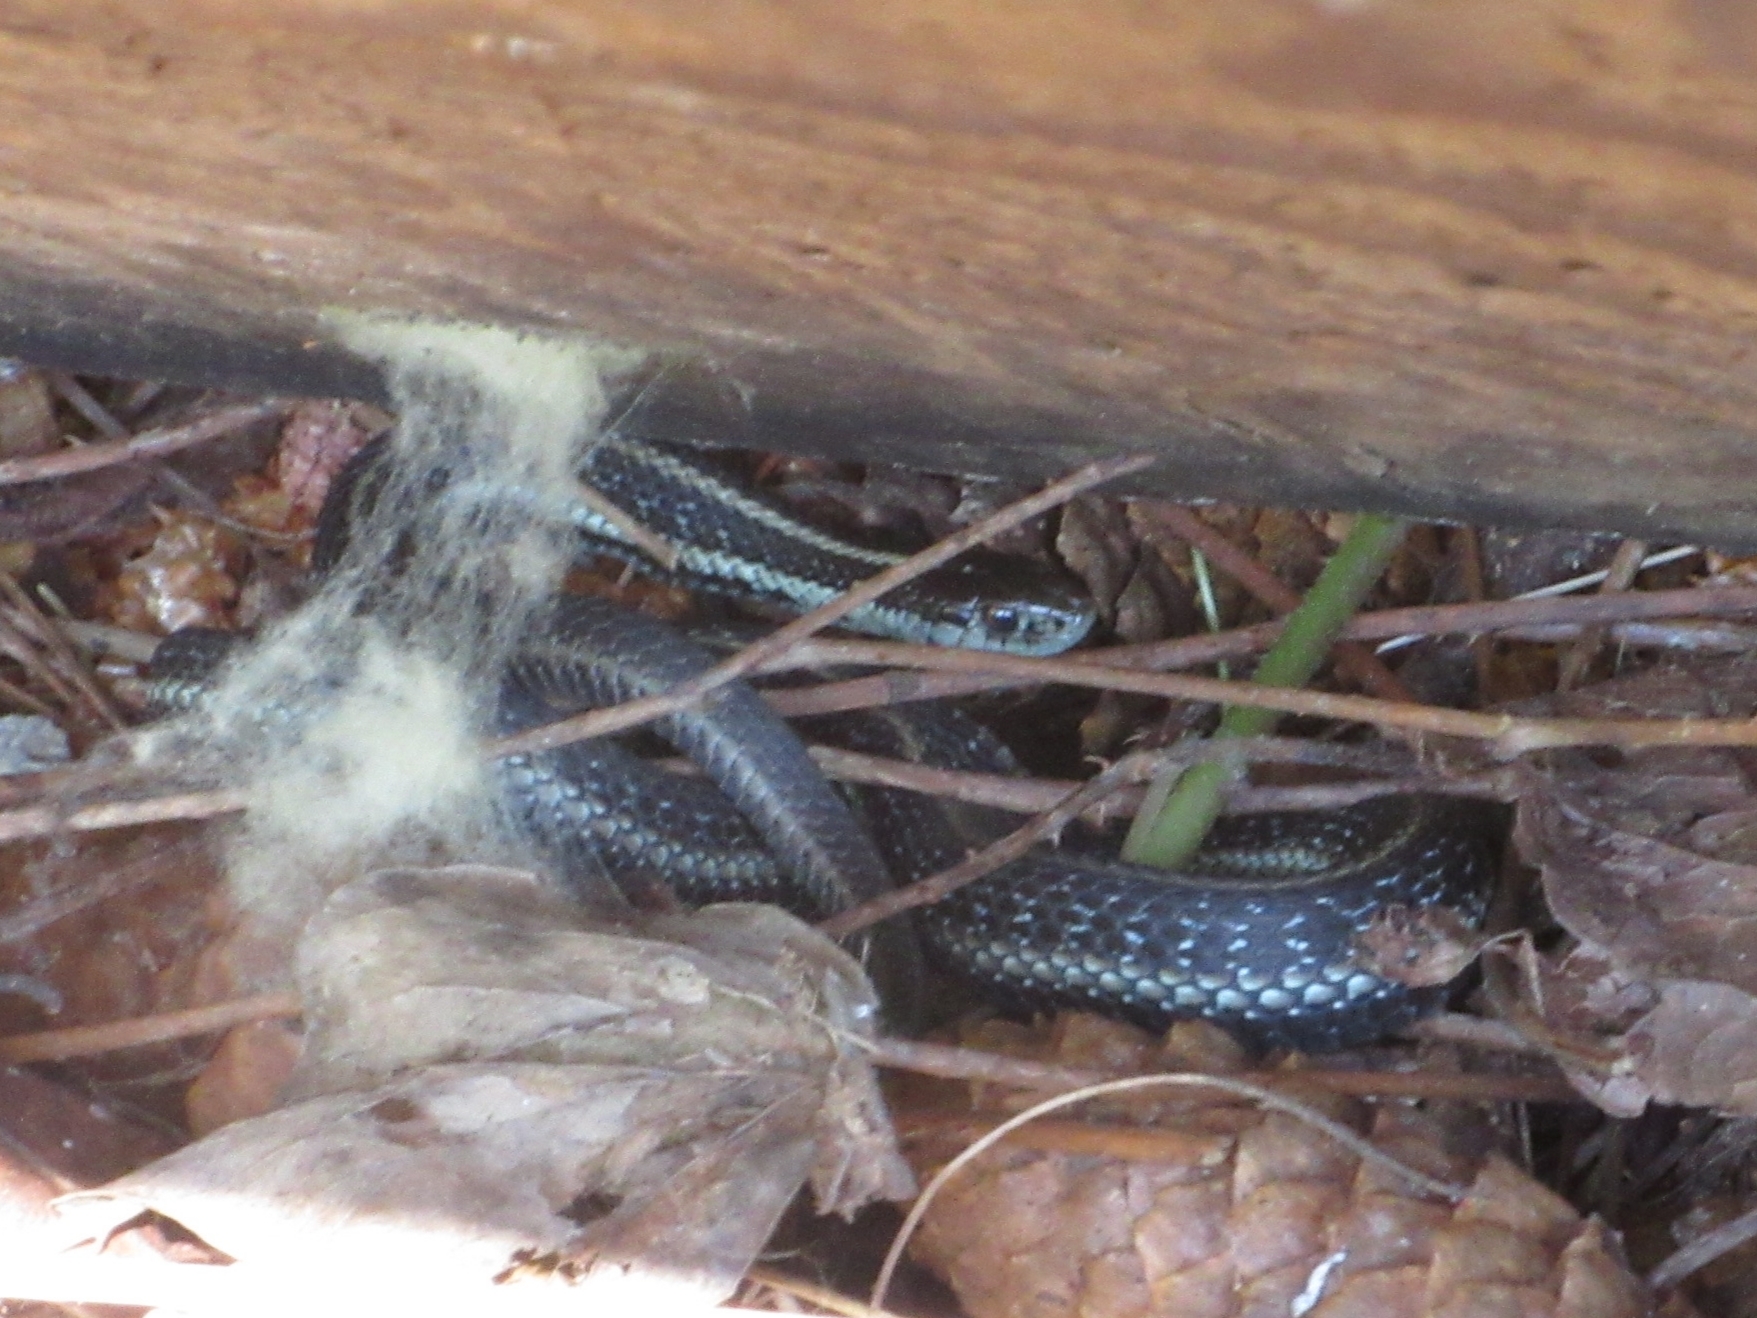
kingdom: Animalia
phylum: Chordata
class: Squamata
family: Colubridae
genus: Thamnophis
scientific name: Thamnophis ordinoides
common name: Northwestern garter snake
